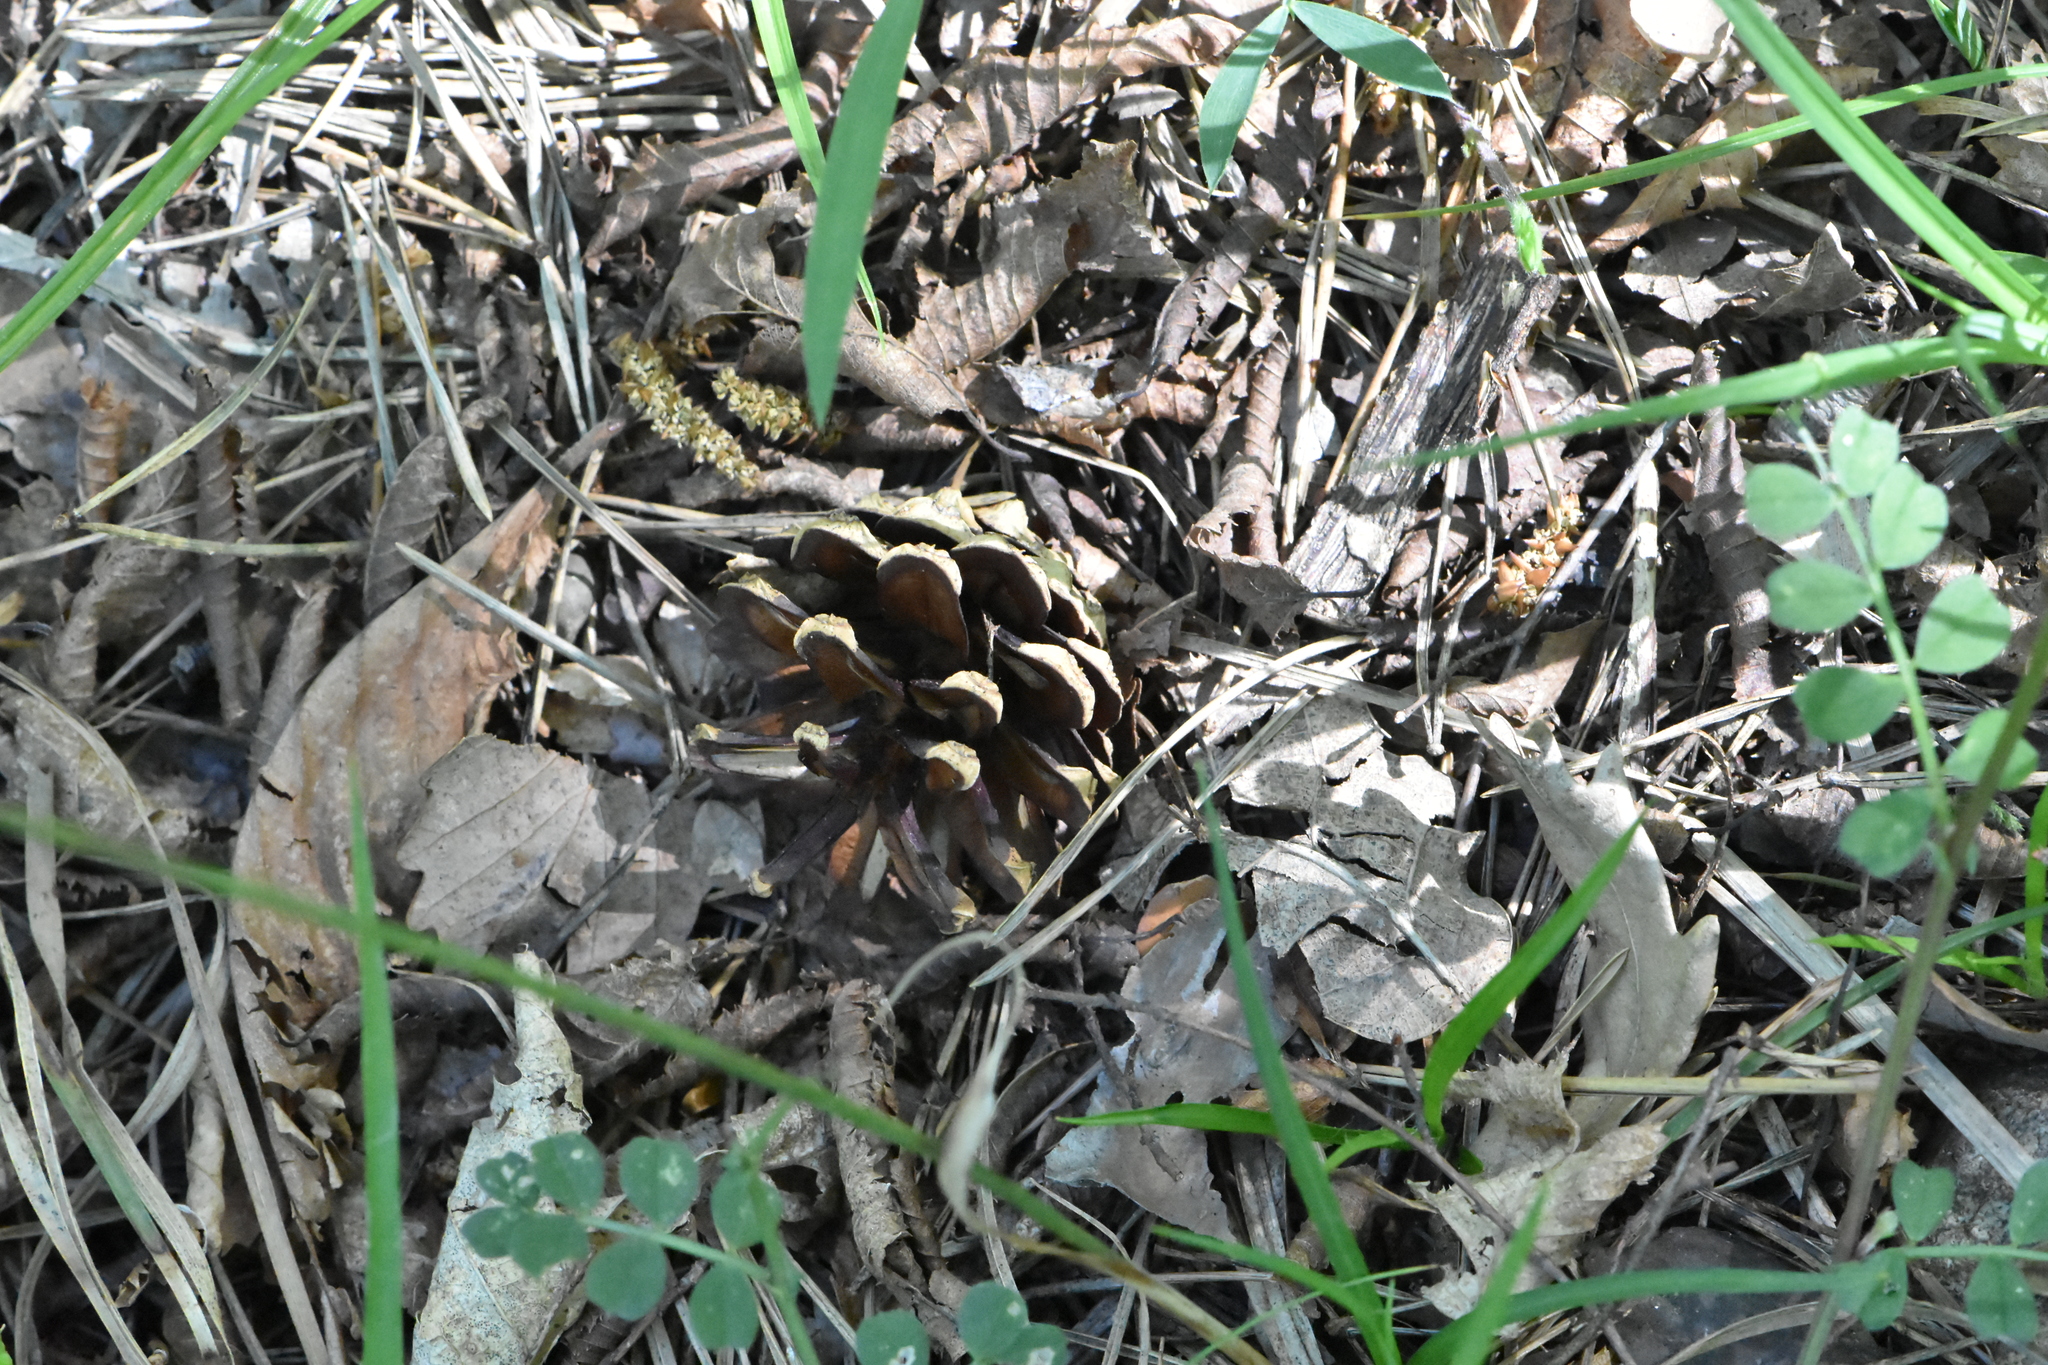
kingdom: Plantae
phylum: Tracheophyta
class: Pinopsida
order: Pinales
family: Pinaceae
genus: Pinus
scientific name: Pinus sylvestris
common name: Scots pine
